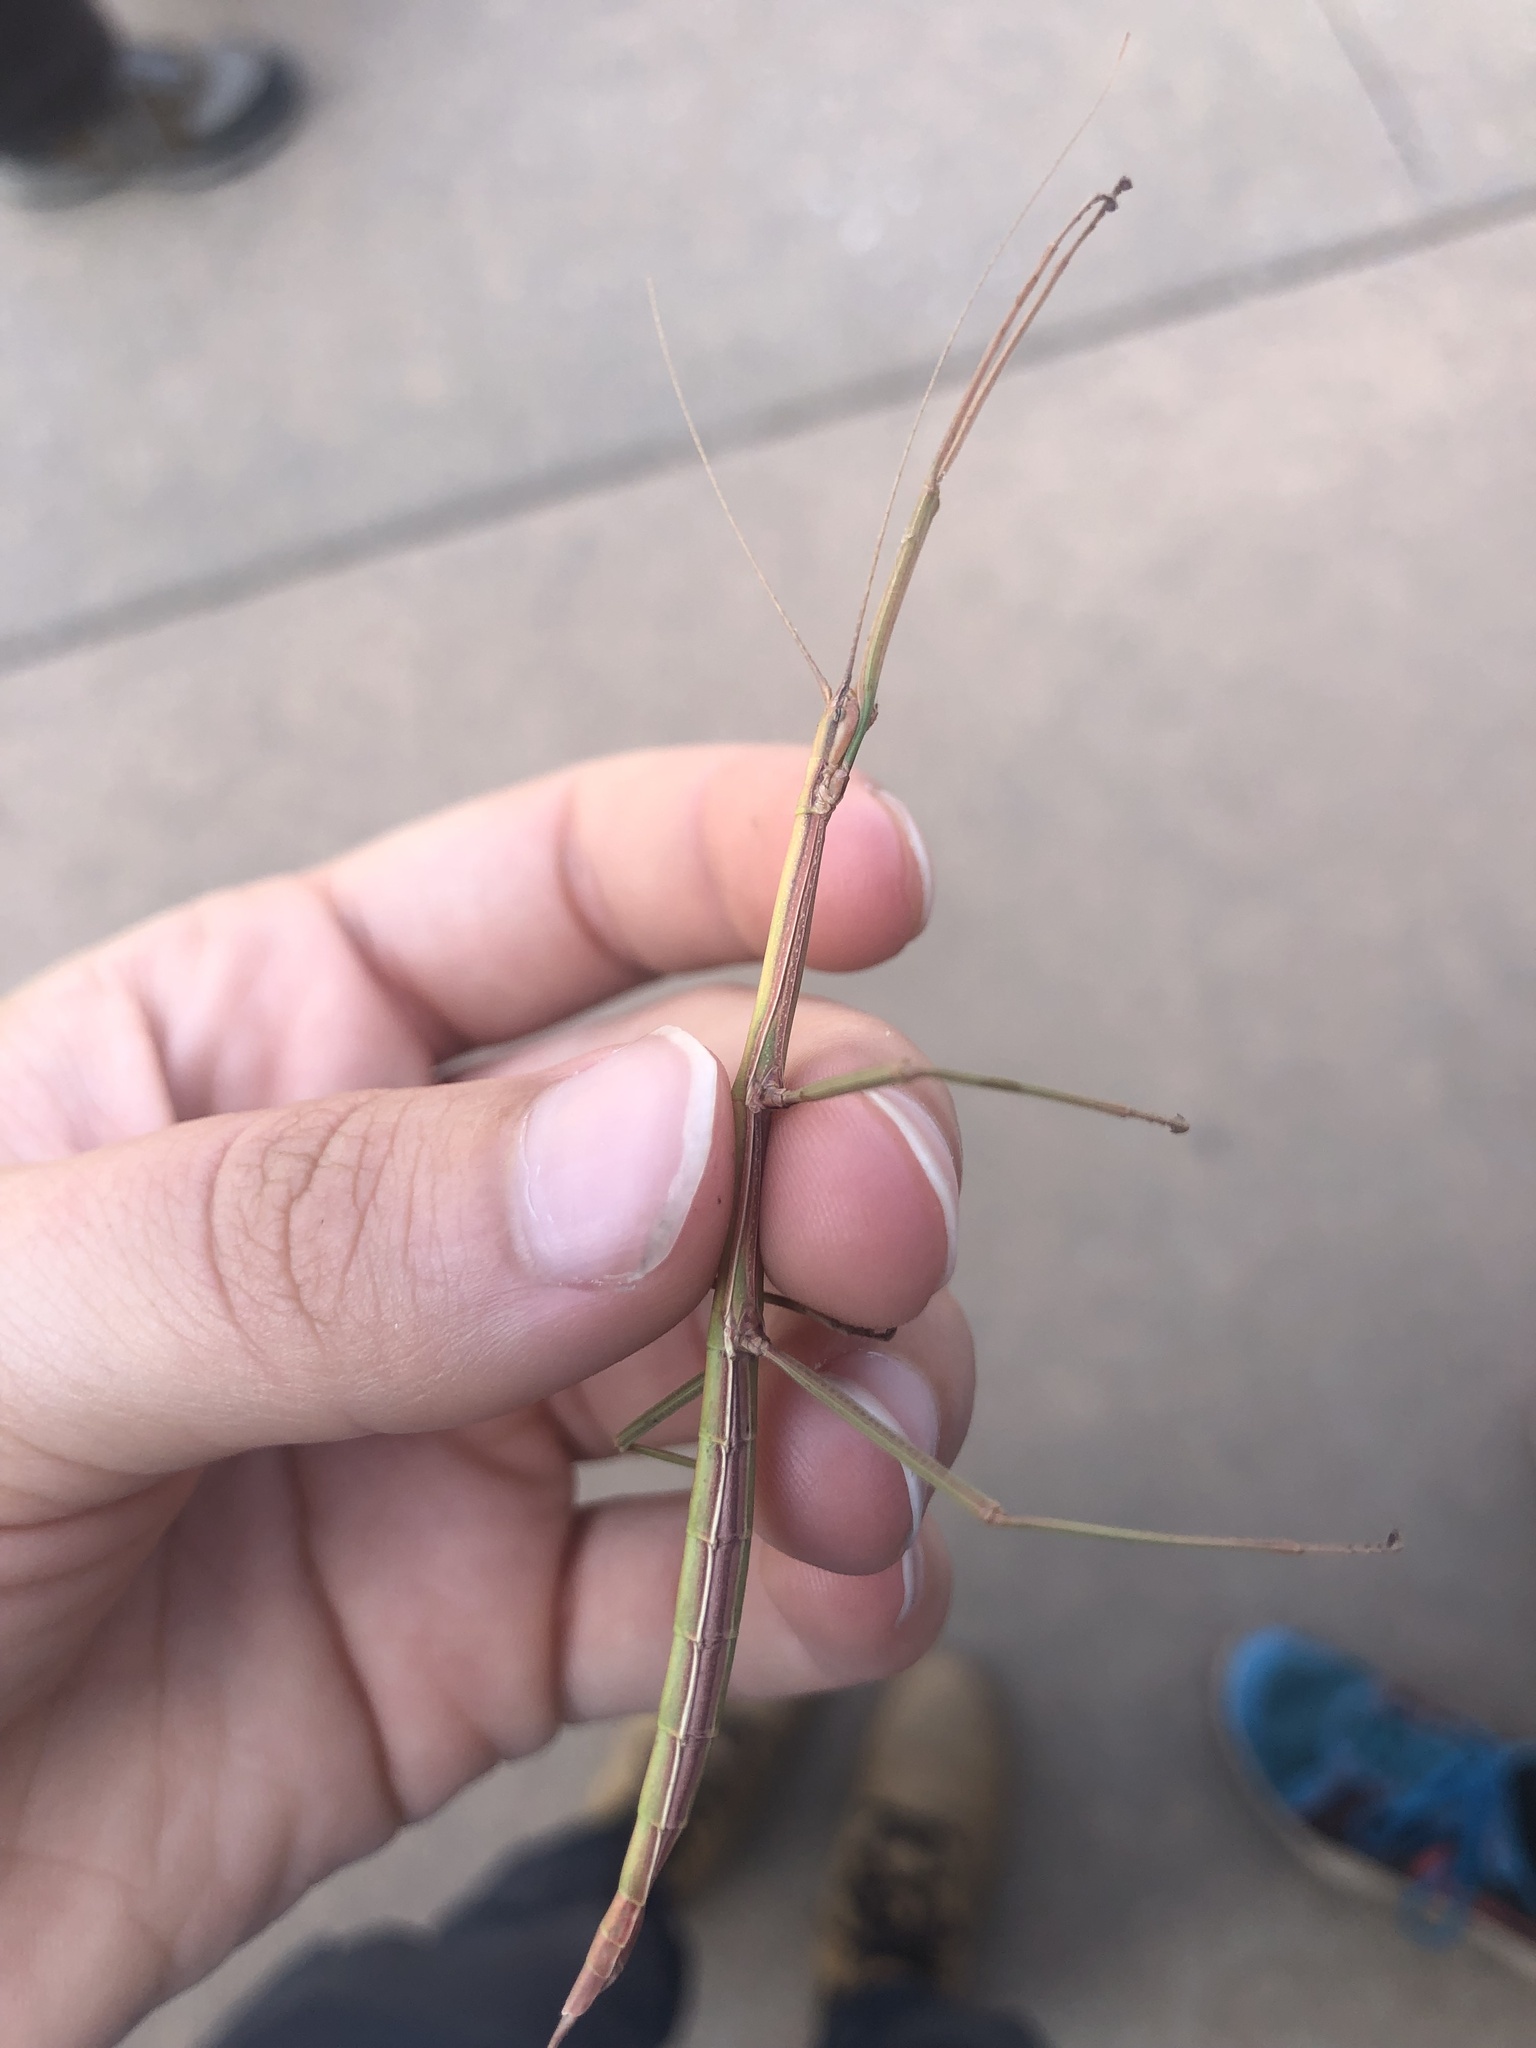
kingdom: Animalia
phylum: Arthropoda
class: Insecta
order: Phasmida
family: Diapheromeridae
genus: Manomera
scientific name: Manomera blatchleyi
